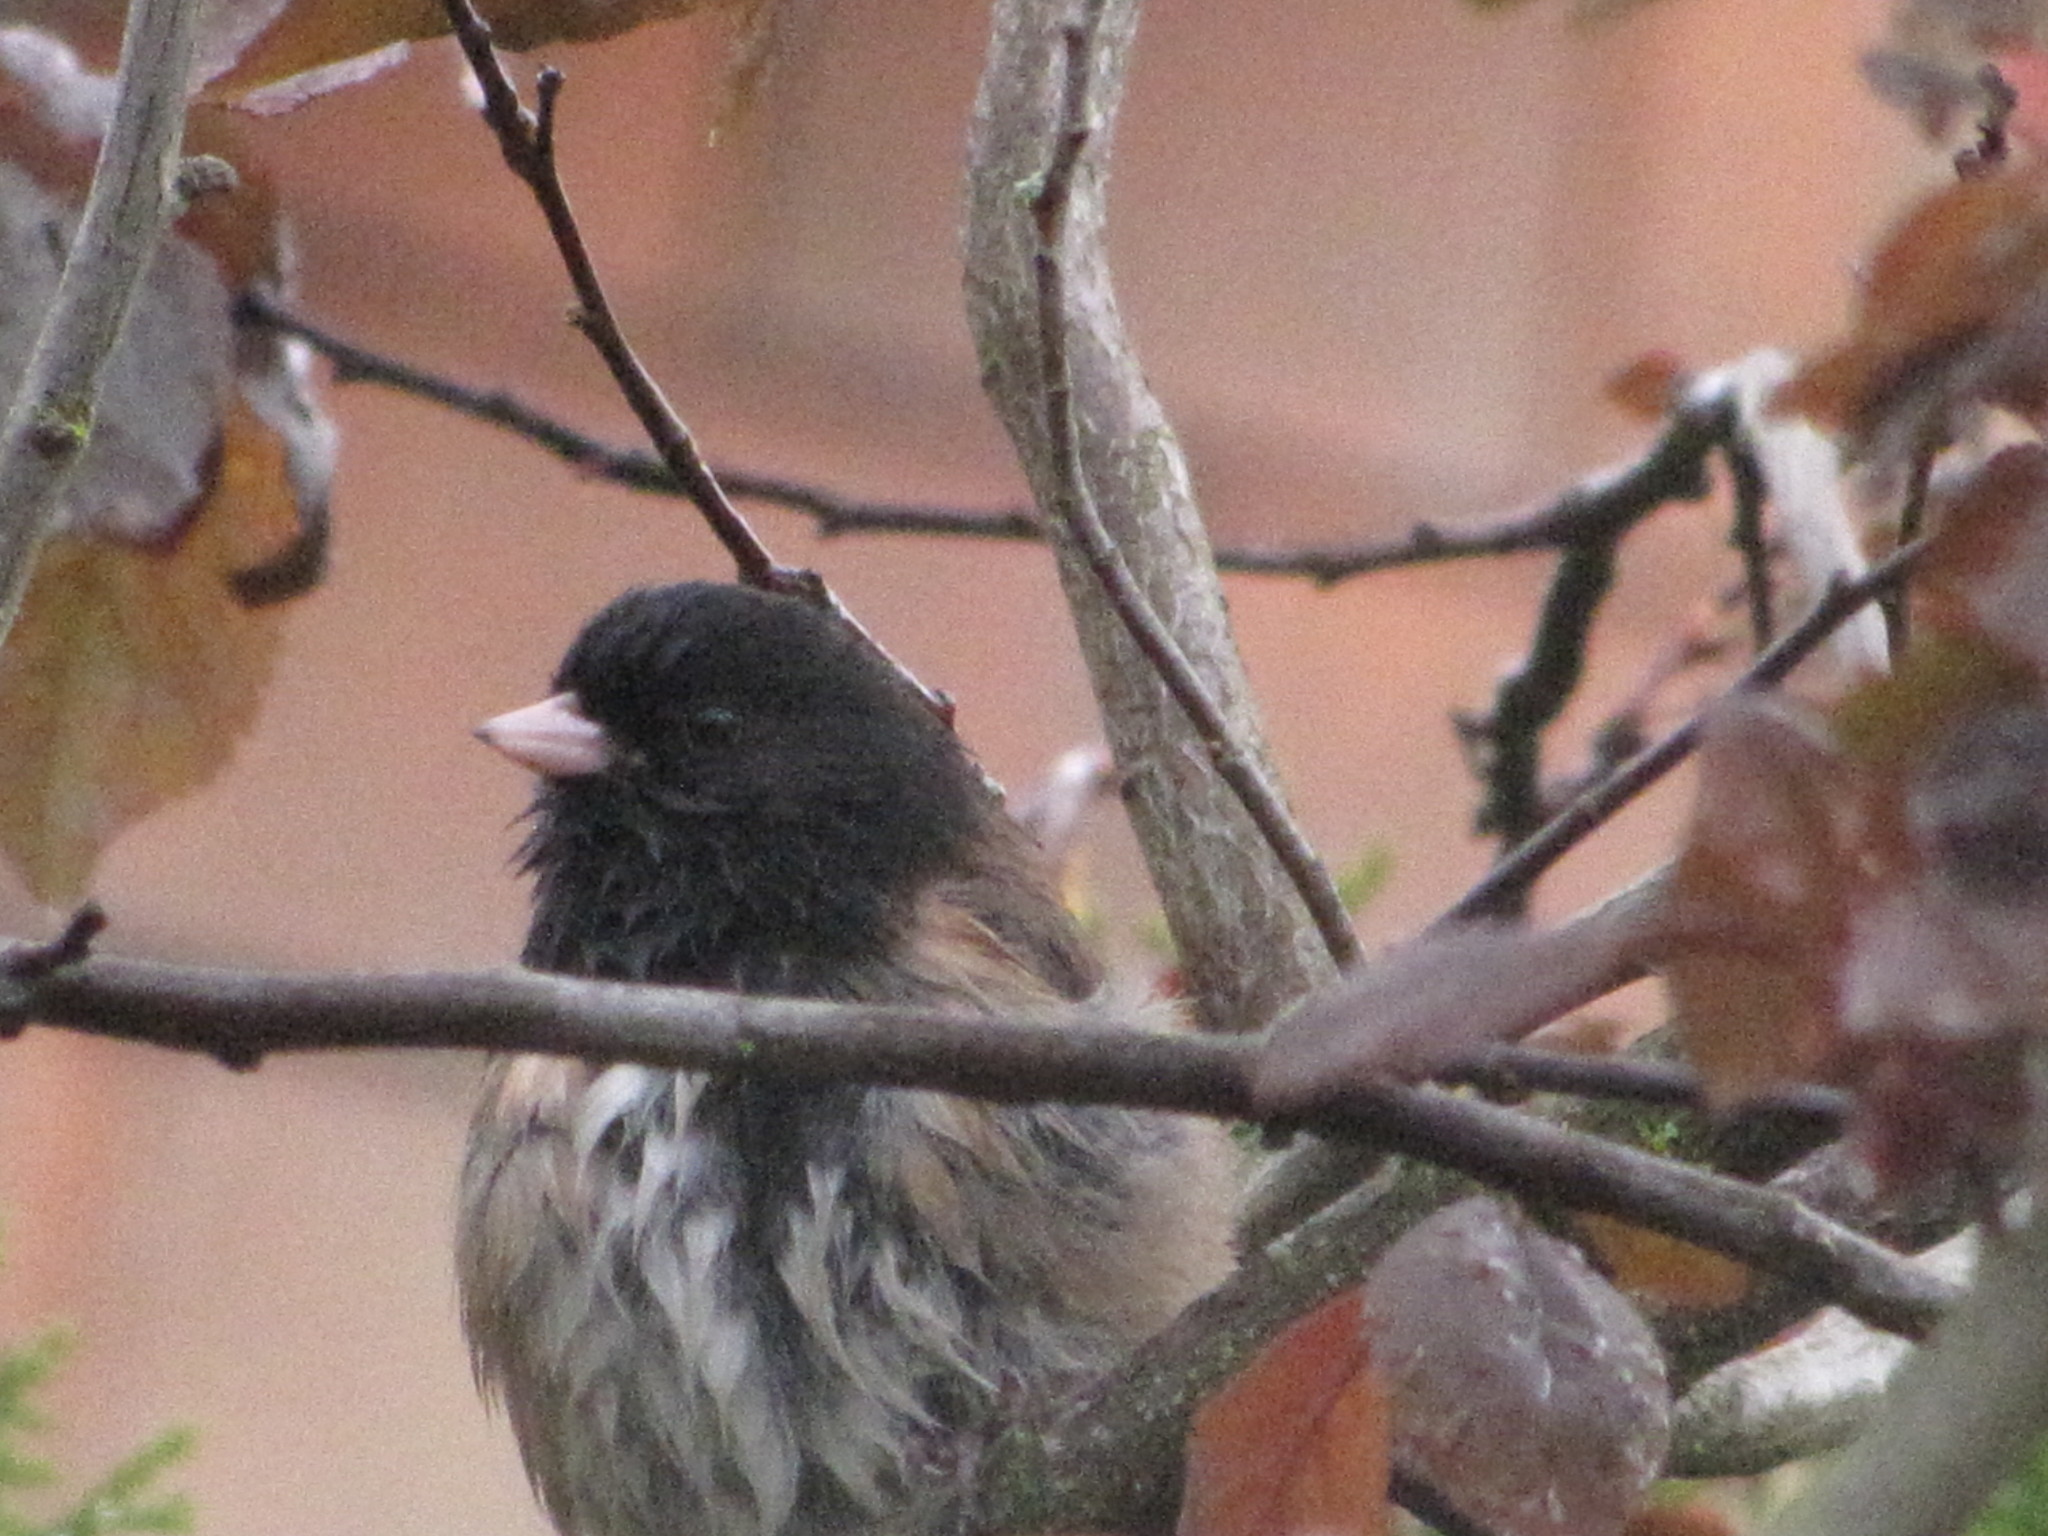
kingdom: Animalia
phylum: Chordata
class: Aves
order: Passeriformes
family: Passerellidae
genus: Junco
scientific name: Junco hyemalis
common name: Dark-eyed junco
